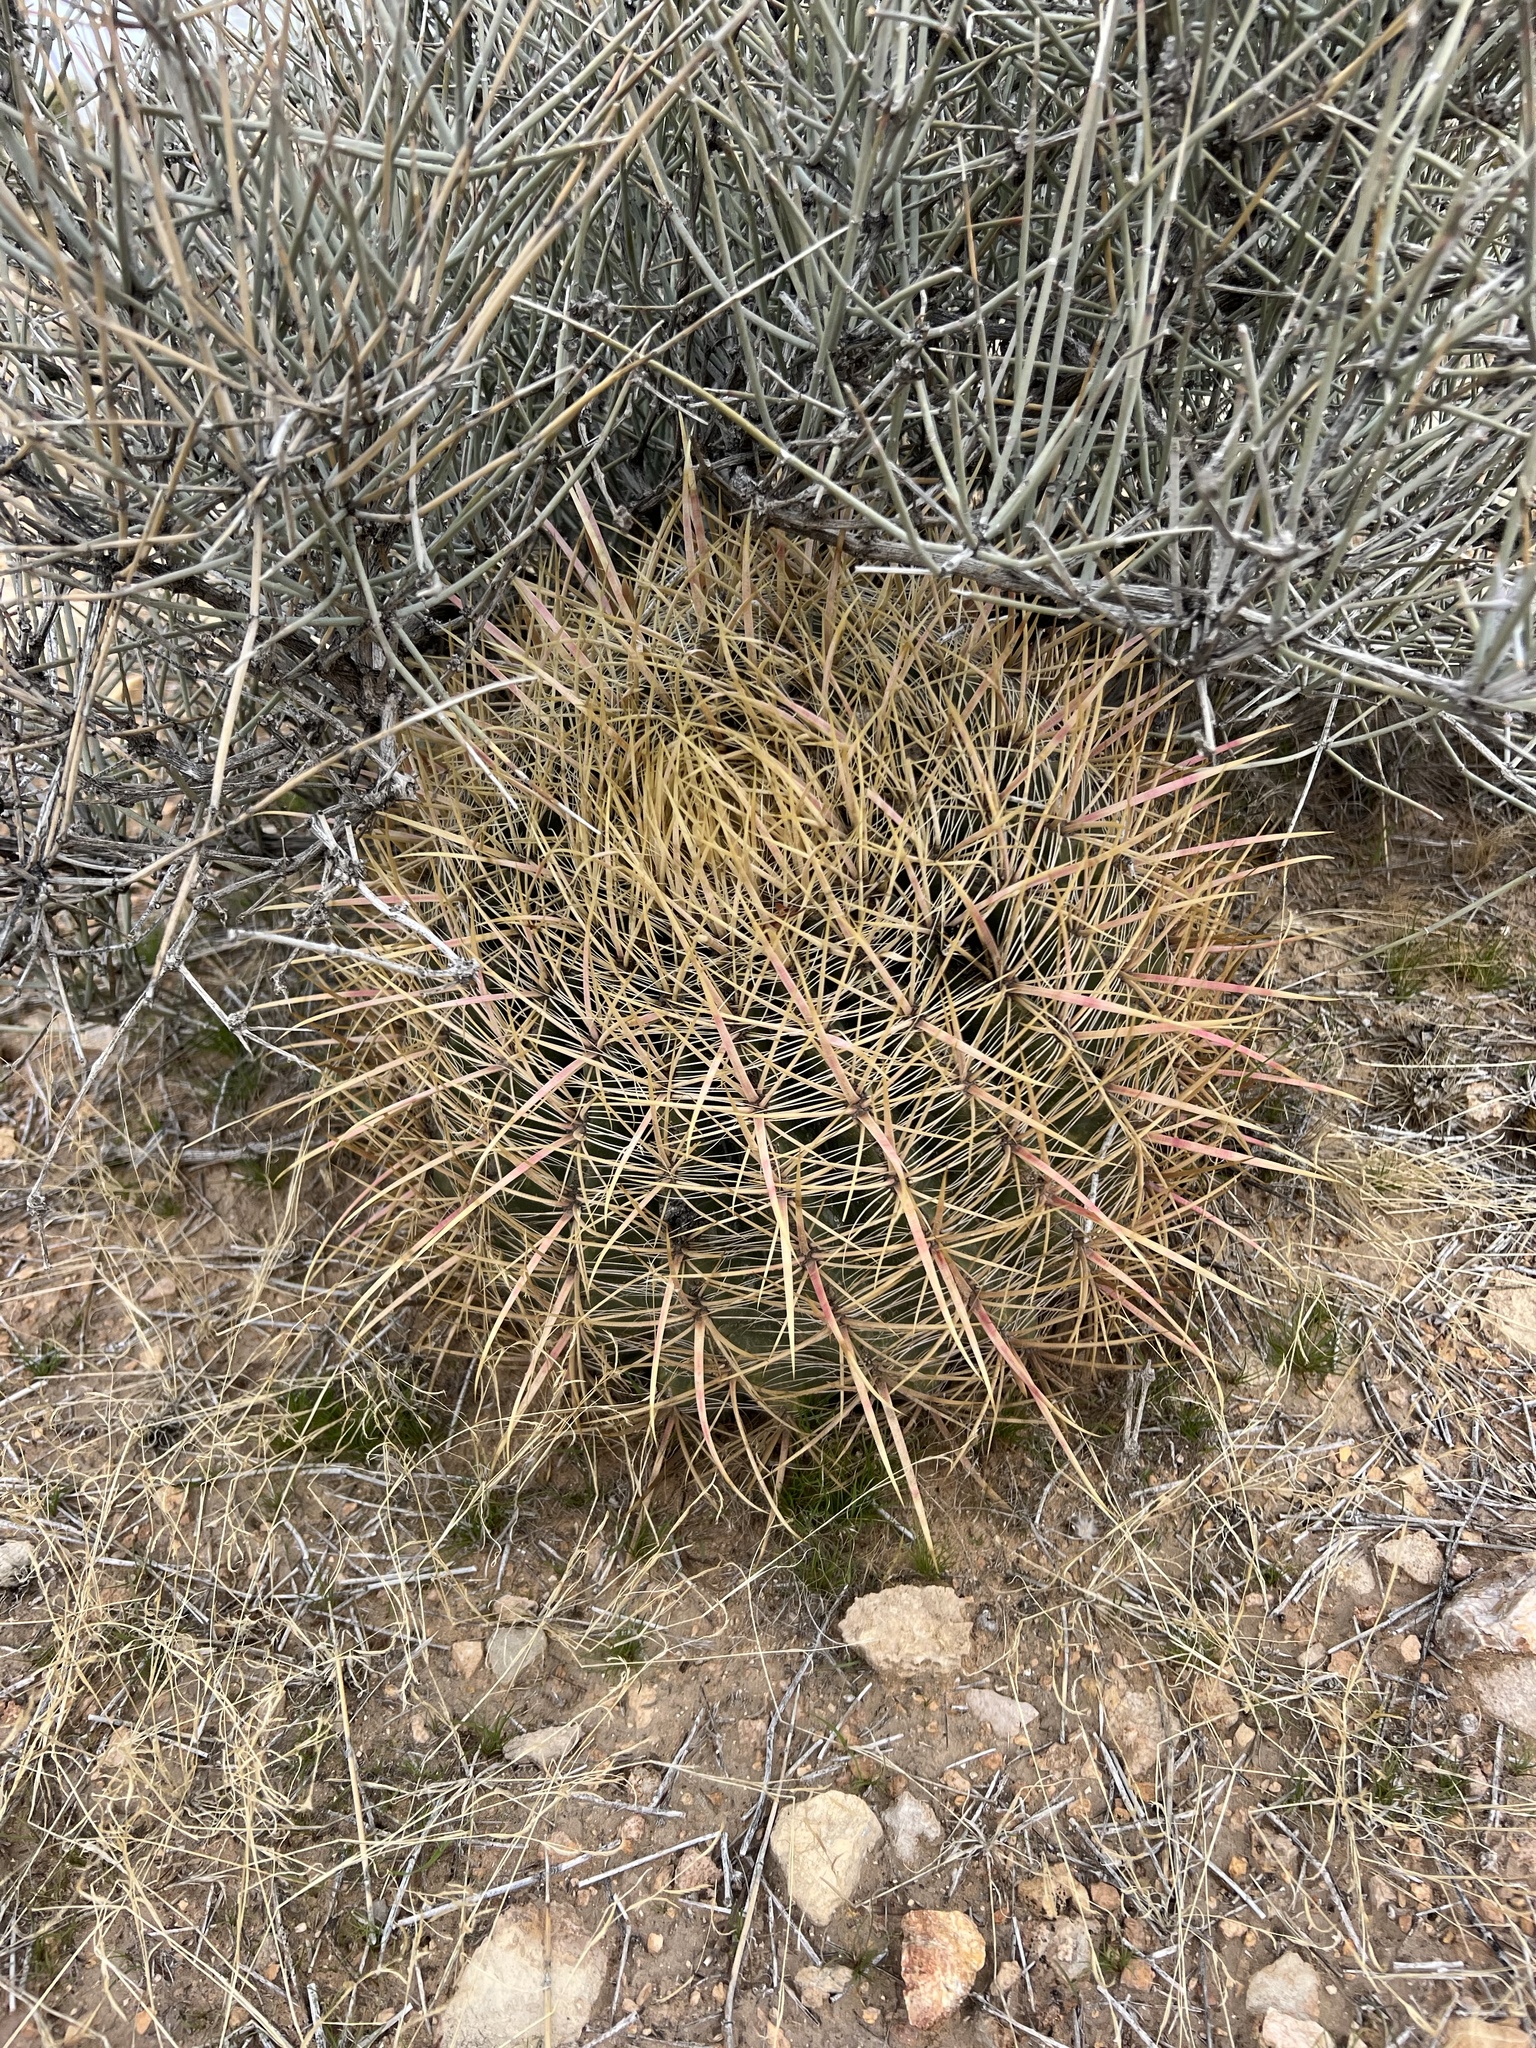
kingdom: Plantae
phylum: Tracheophyta
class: Magnoliopsida
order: Caryophyllales
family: Cactaceae
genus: Ferocactus
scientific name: Ferocactus cylindraceus
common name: California barrel cactus
